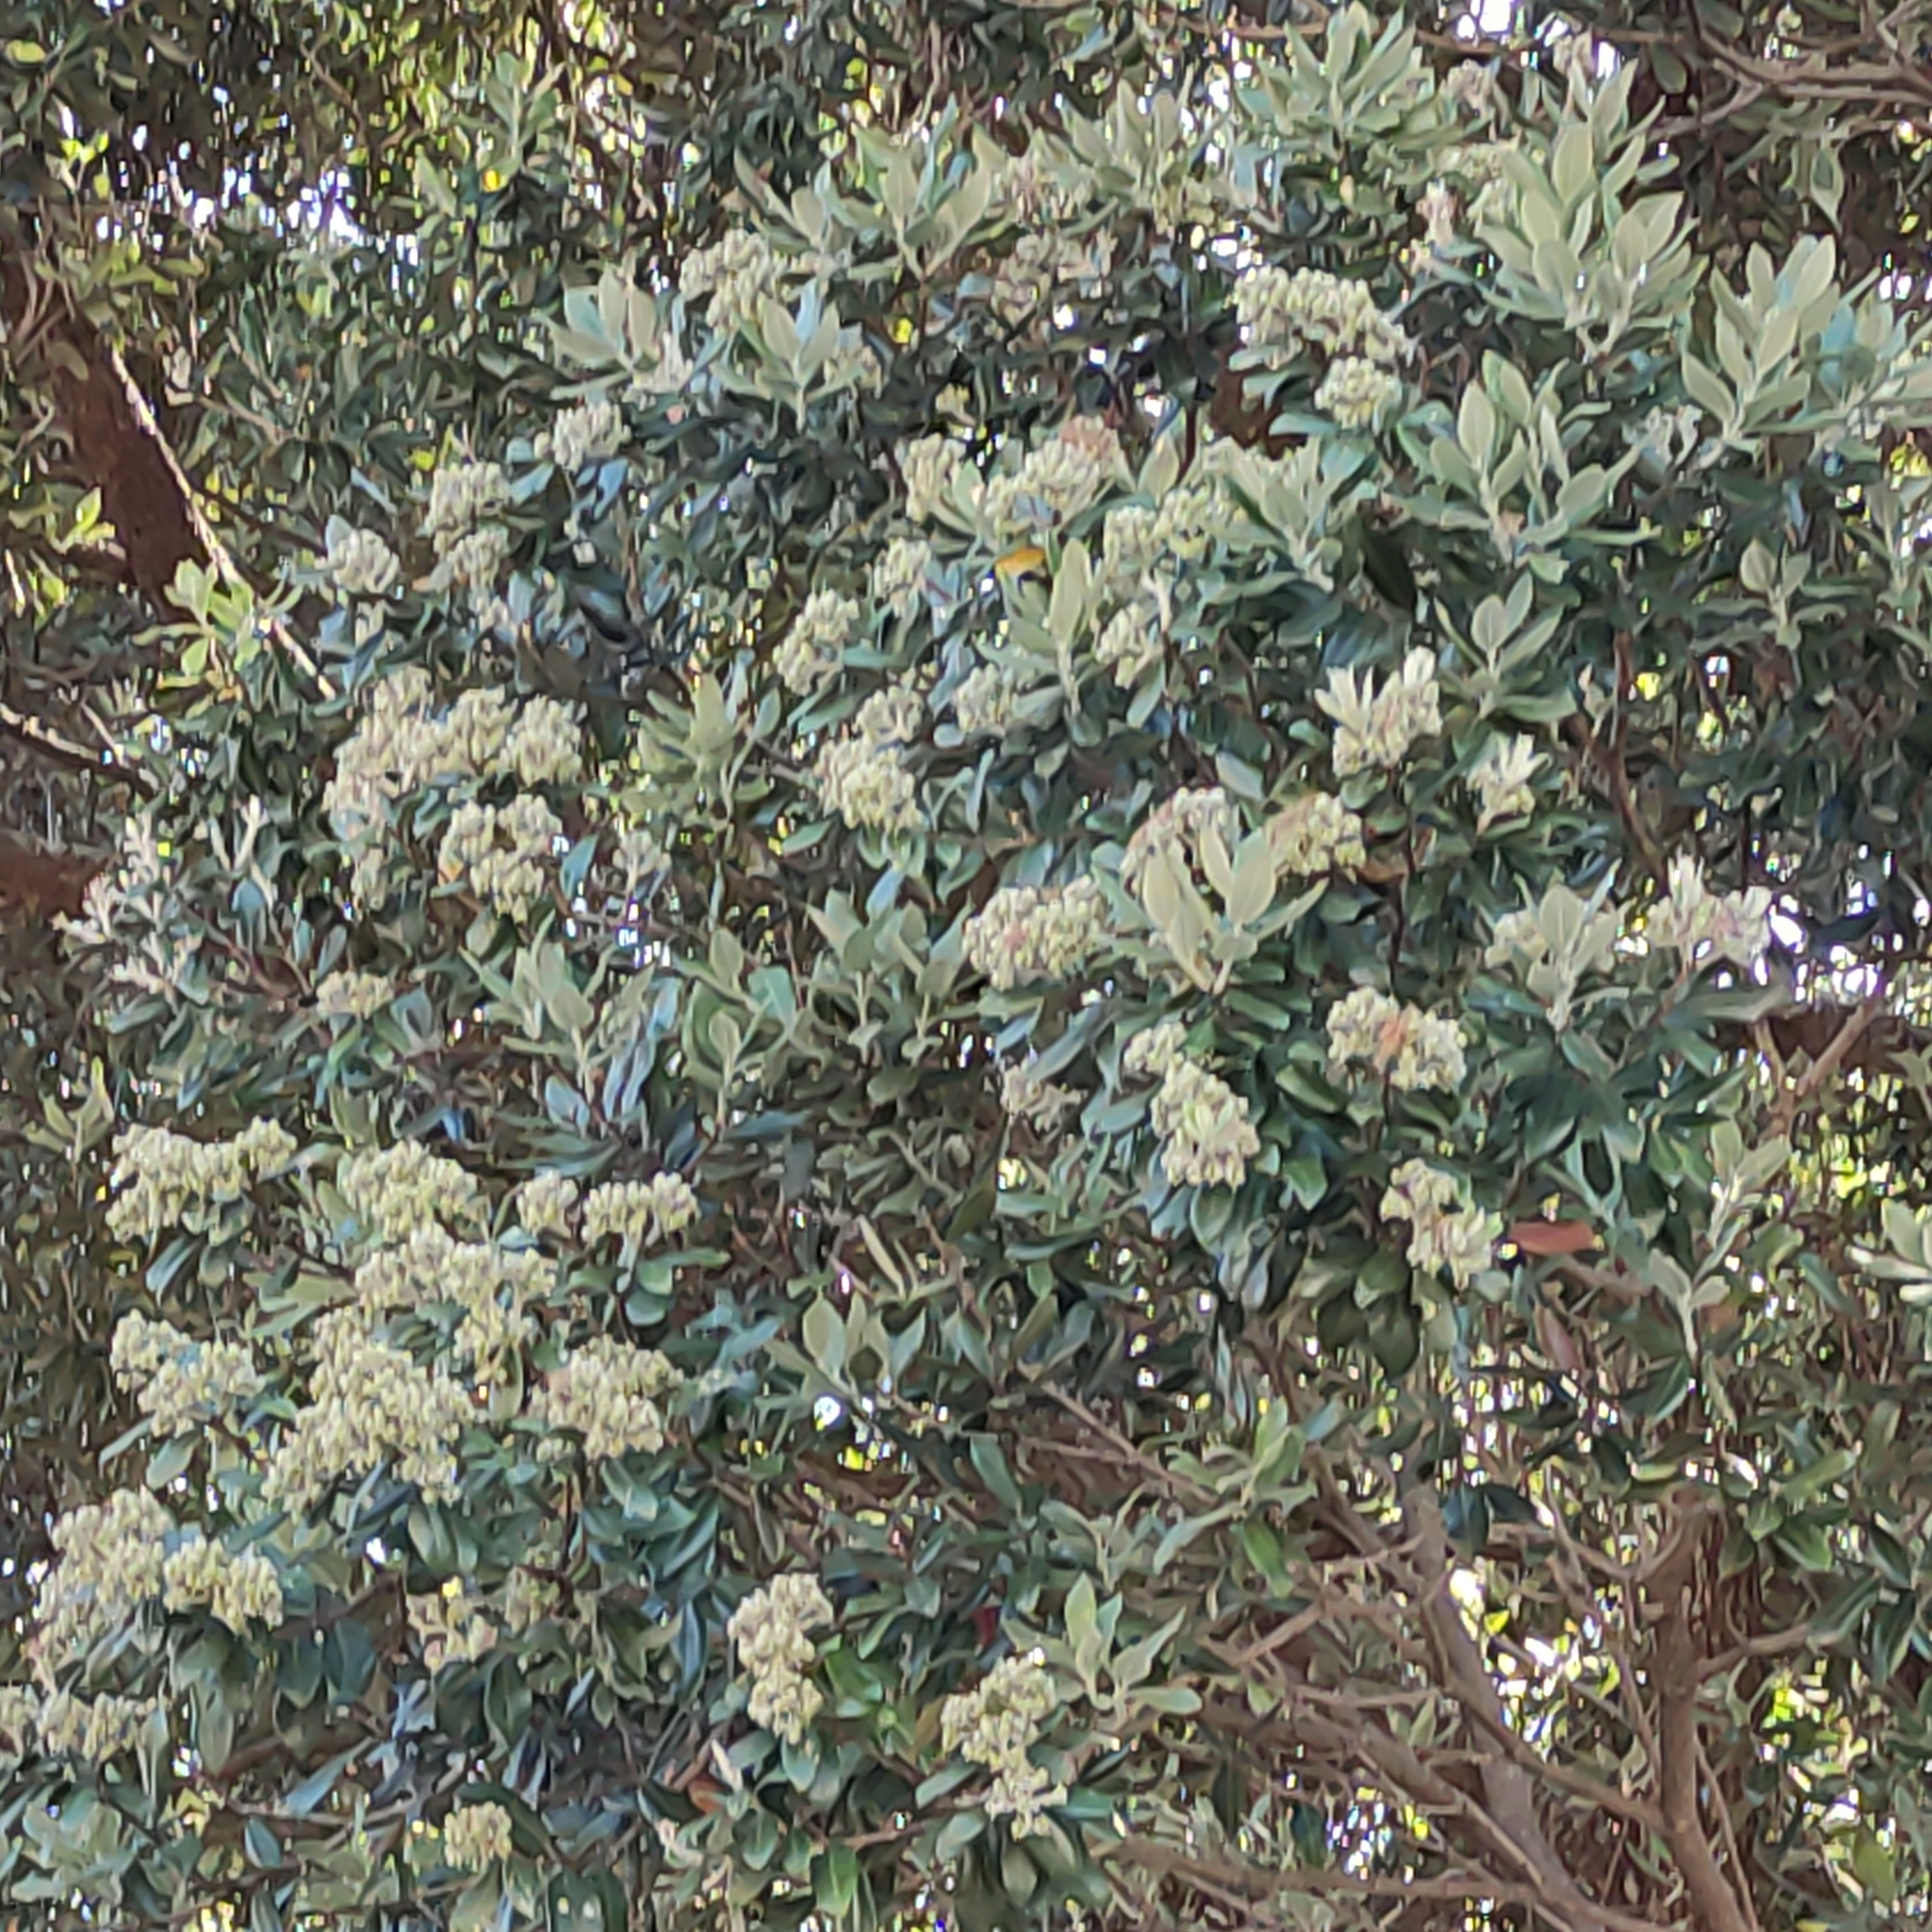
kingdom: Plantae
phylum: Tracheophyta
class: Magnoliopsida
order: Myrtales
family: Myrtaceae
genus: Metrosideros
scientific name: Metrosideros excelsa
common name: New zealand christmastree
